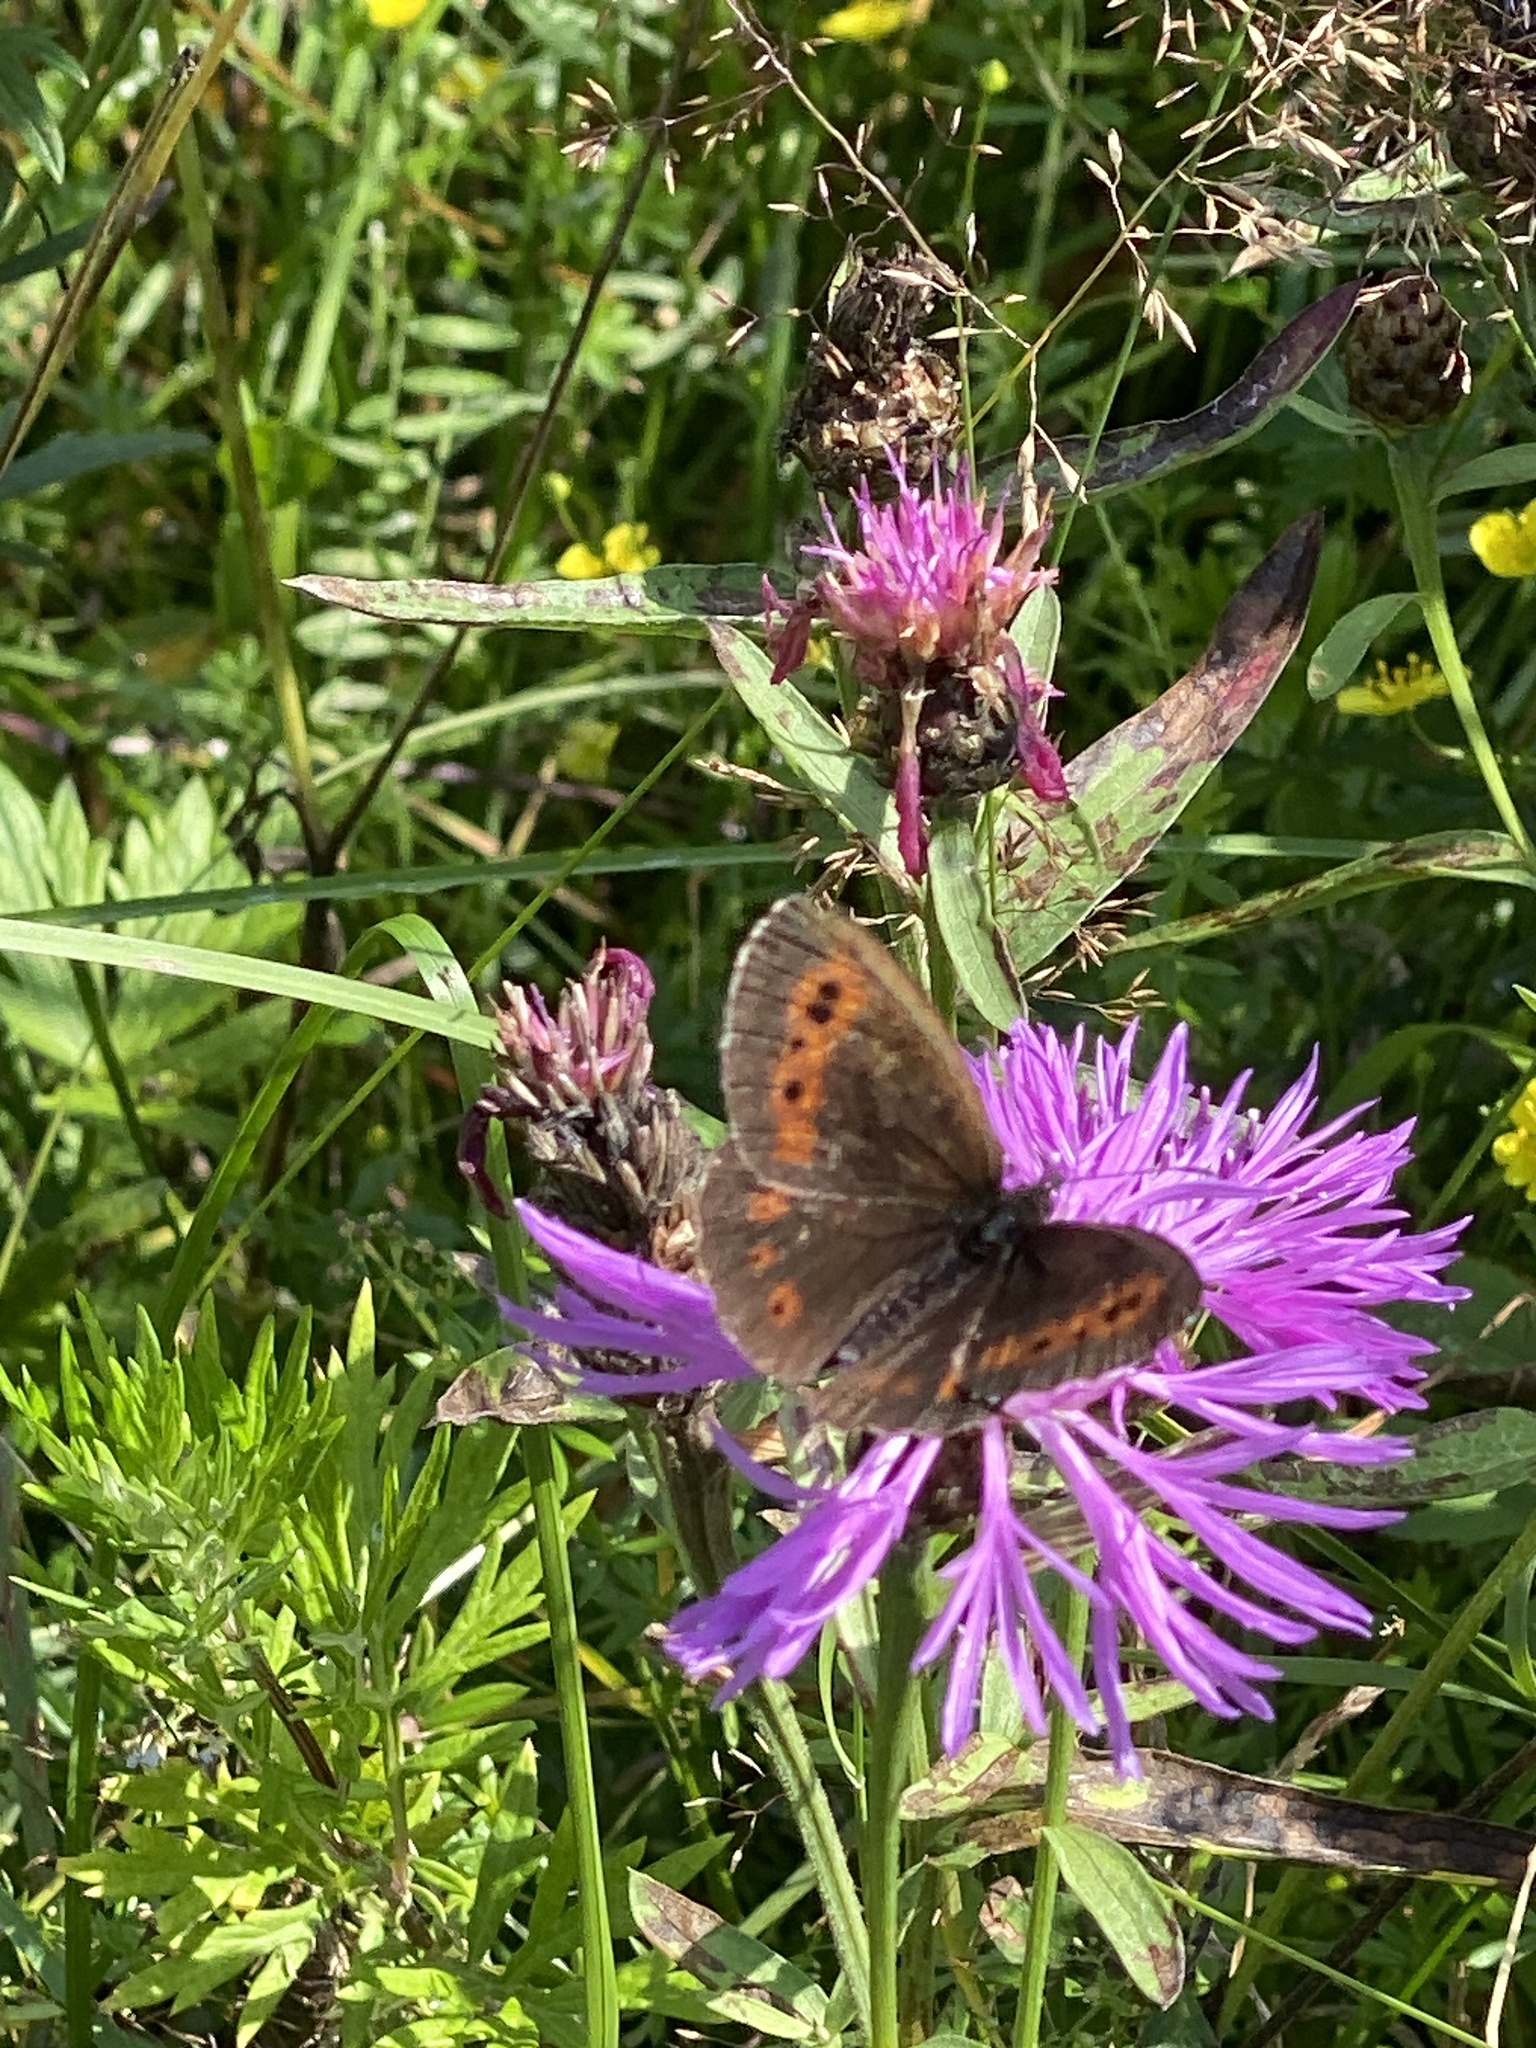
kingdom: Animalia
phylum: Arthropoda
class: Insecta
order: Lepidoptera
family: Nymphalidae
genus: Erebia
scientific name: Erebia ligea
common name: Arran brown
